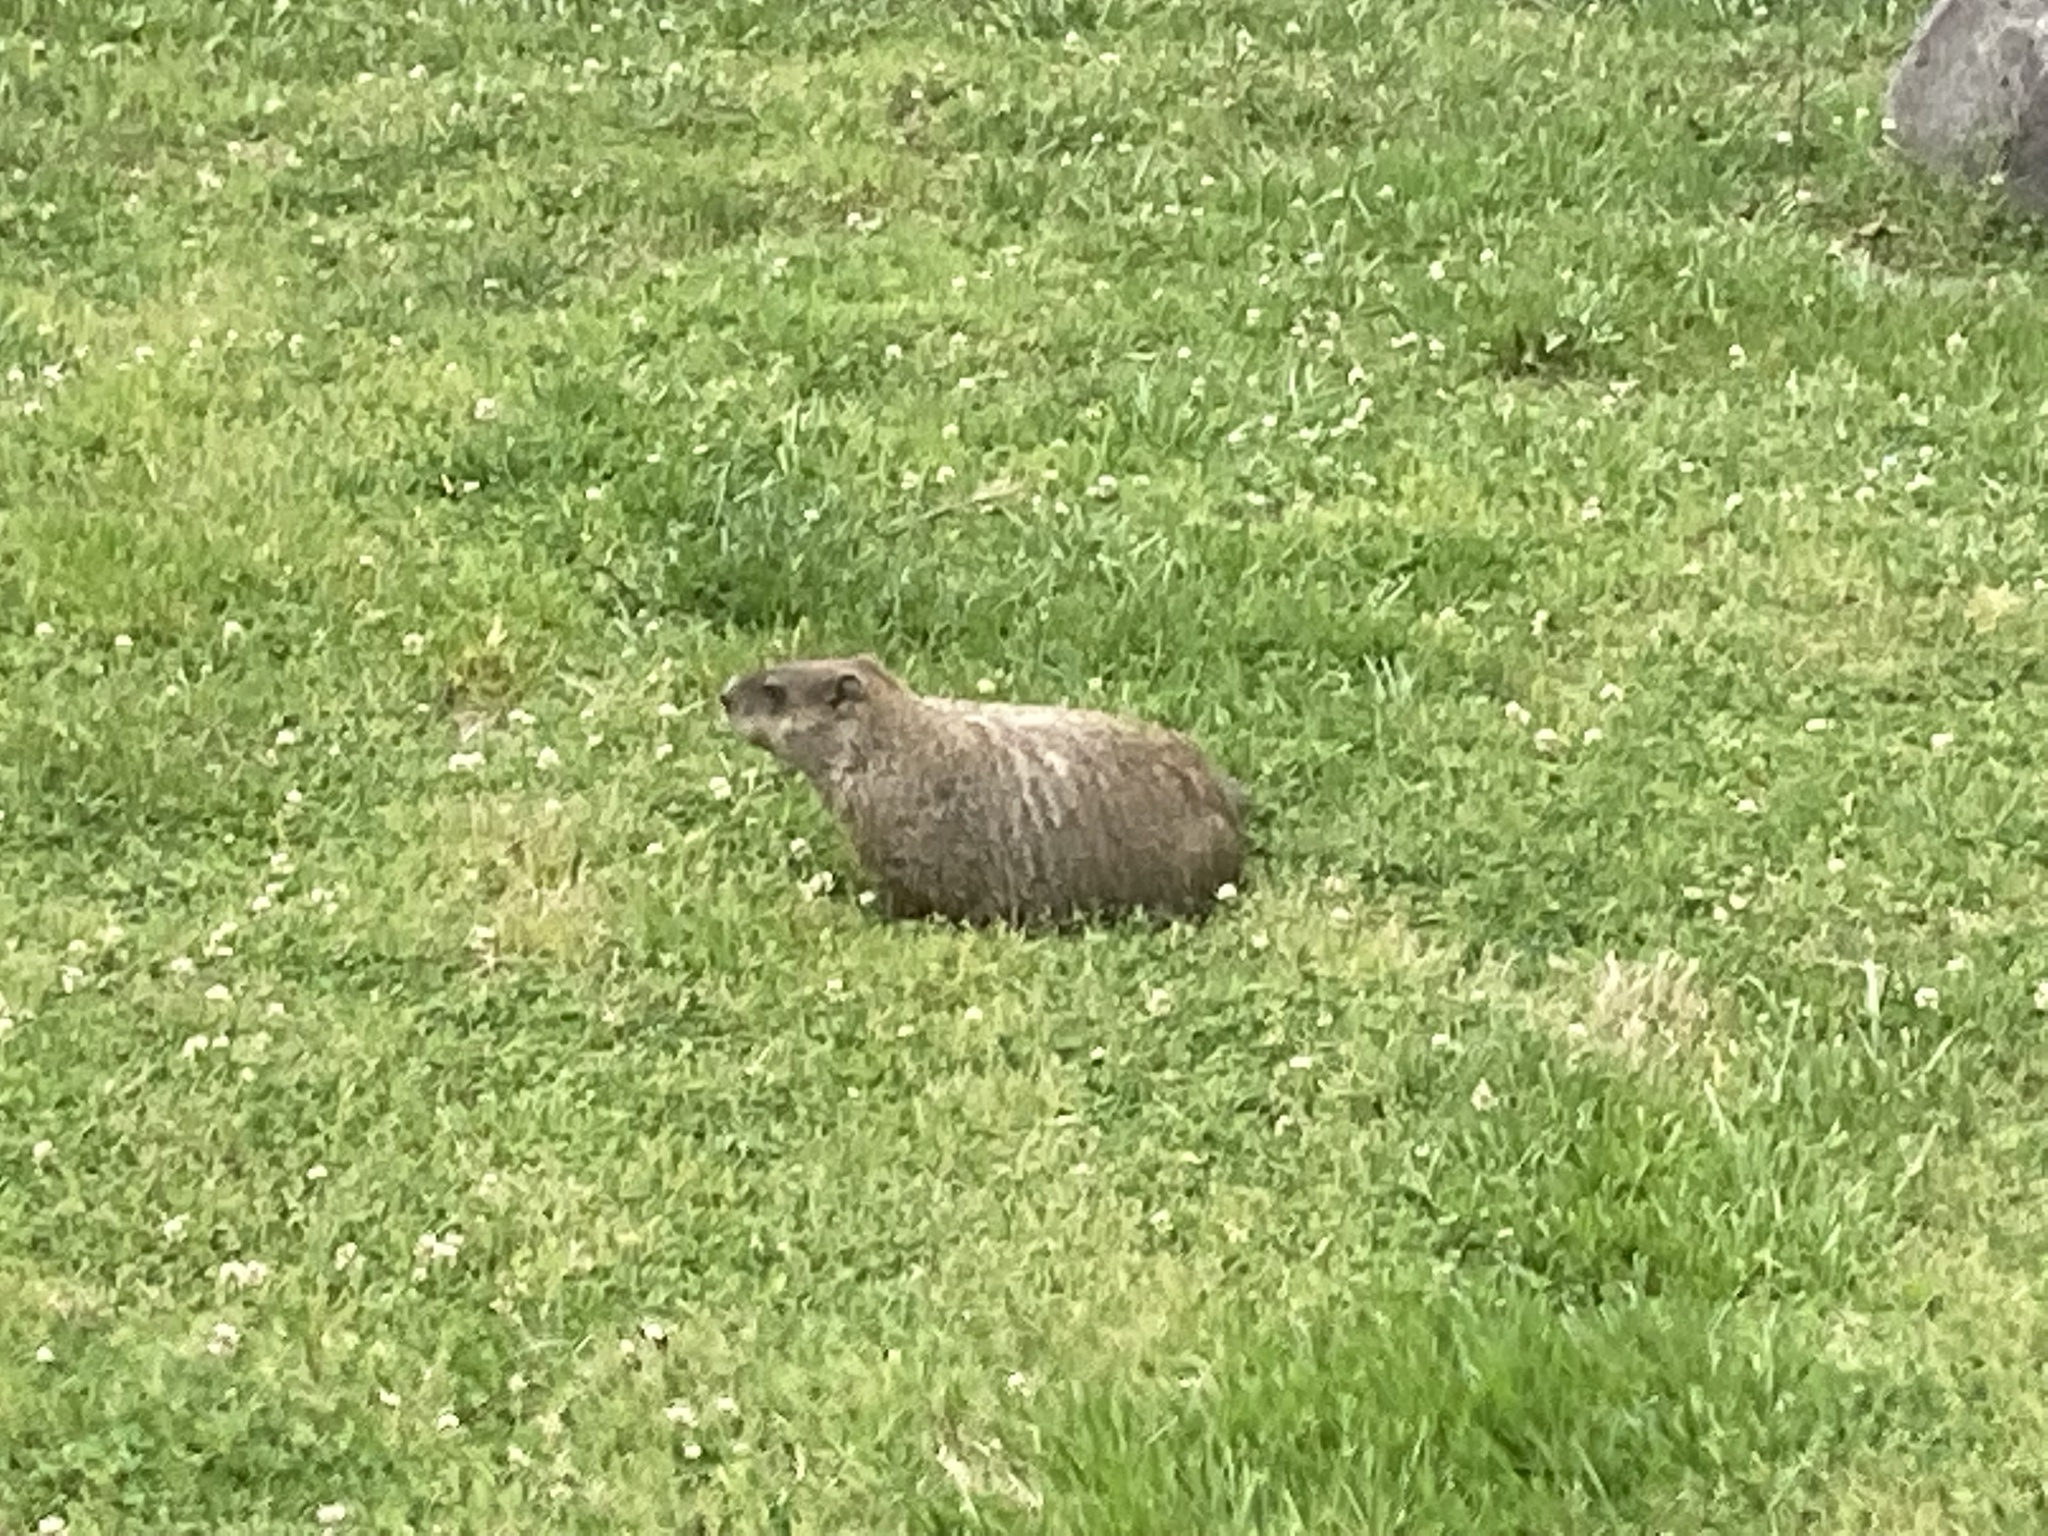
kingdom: Animalia
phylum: Chordata
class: Mammalia
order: Rodentia
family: Sciuridae
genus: Marmota
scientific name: Marmota monax
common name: Groundhog
